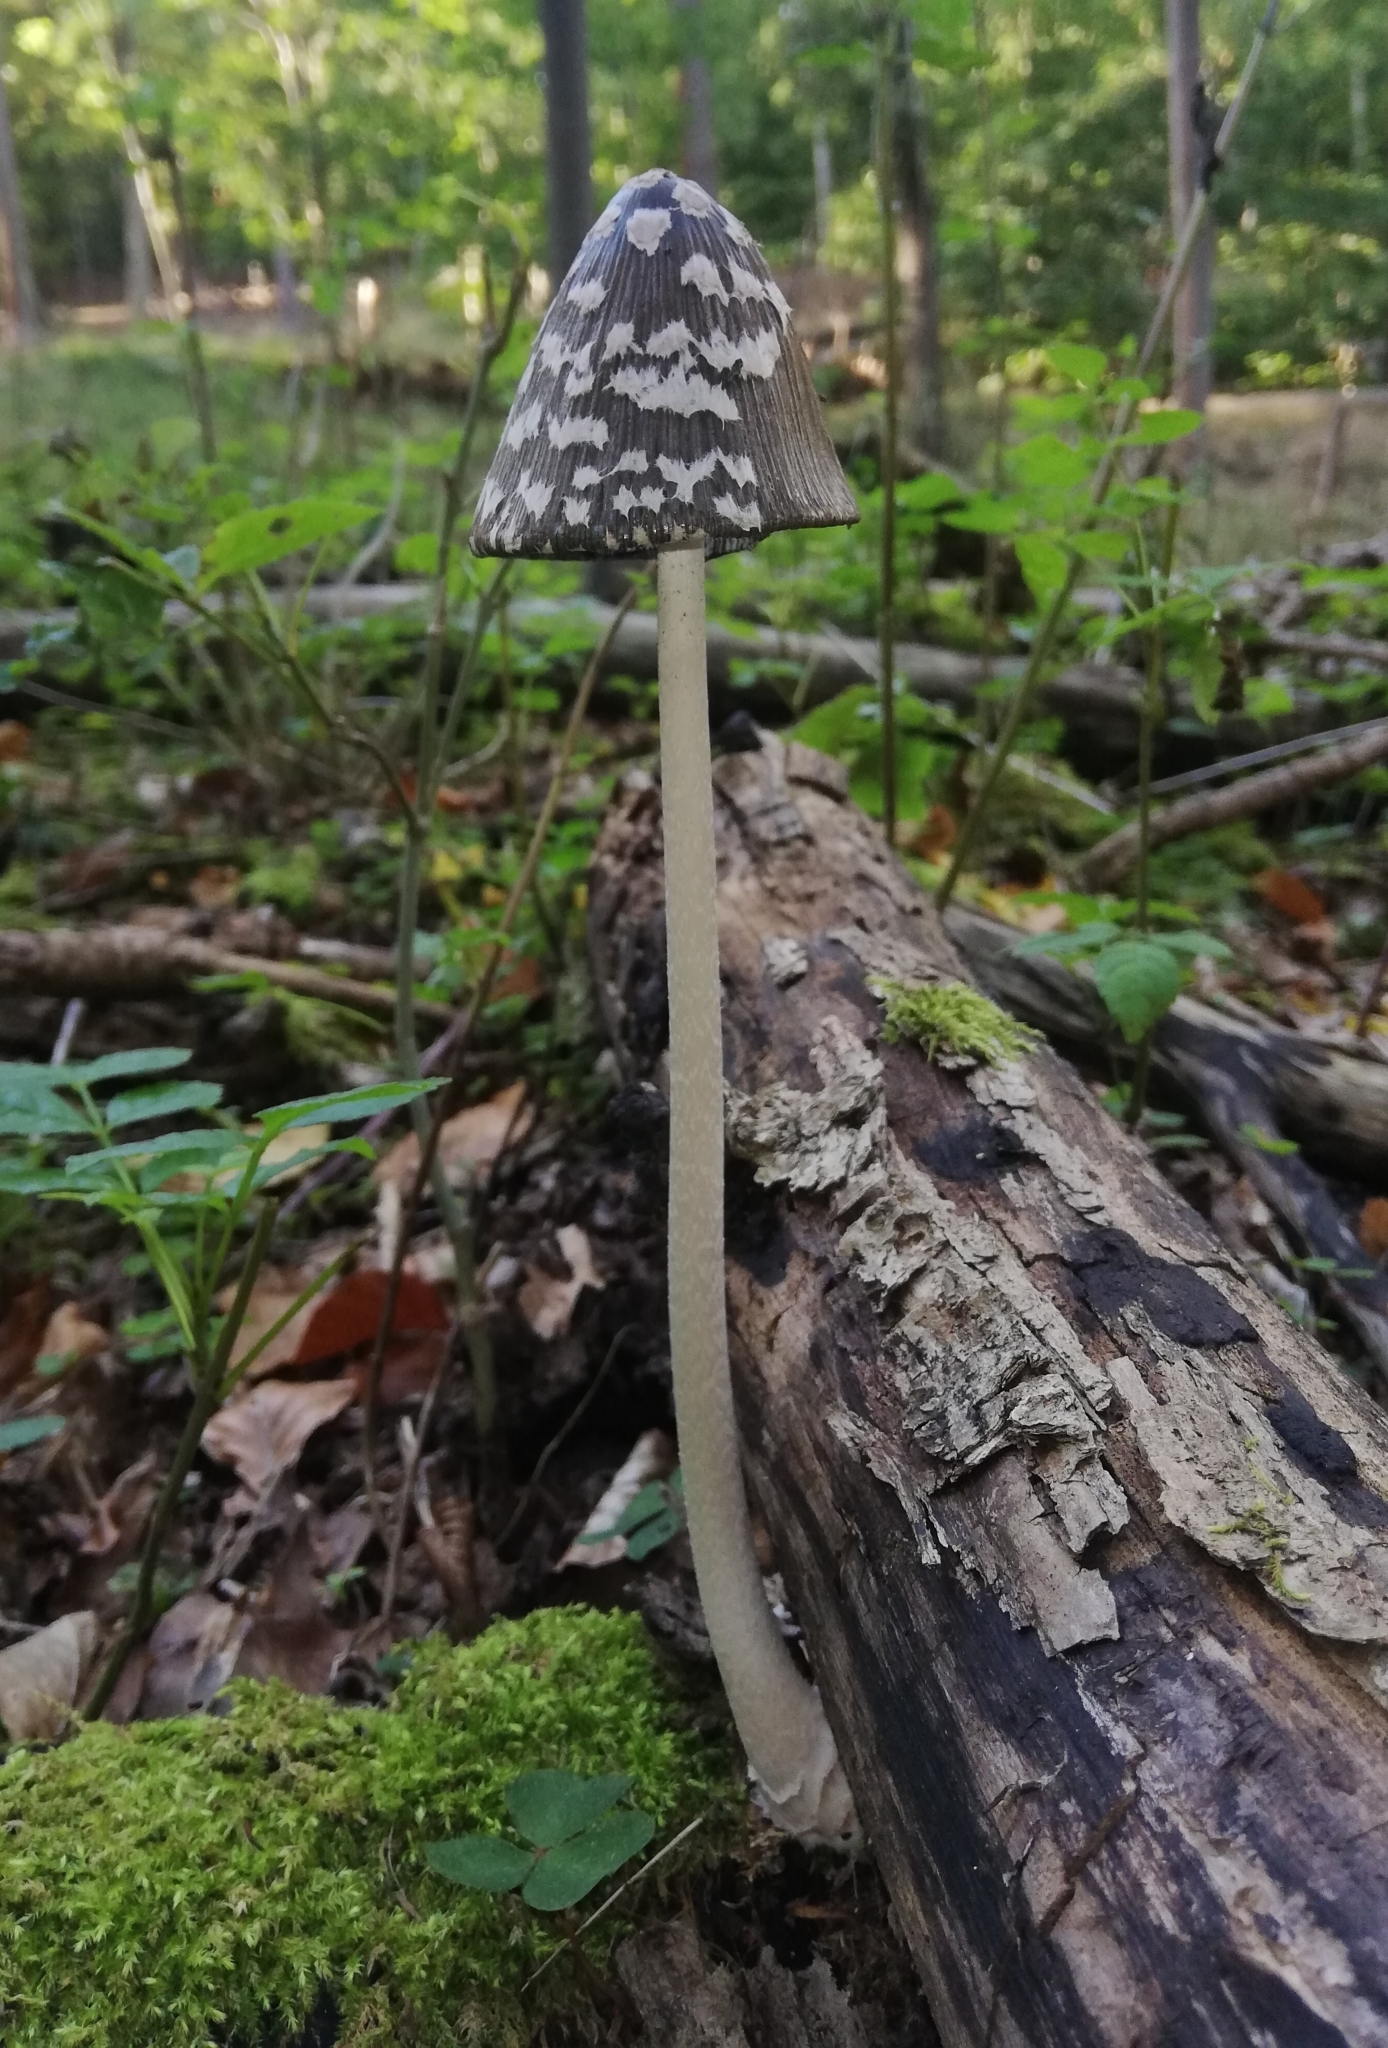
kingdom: Fungi
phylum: Basidiomycota
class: Agaricomycetes
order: Agaricales
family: Psathyrellaceae
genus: Coprinopsis
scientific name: Coprinopsis picacea
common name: Magpie inkcap
